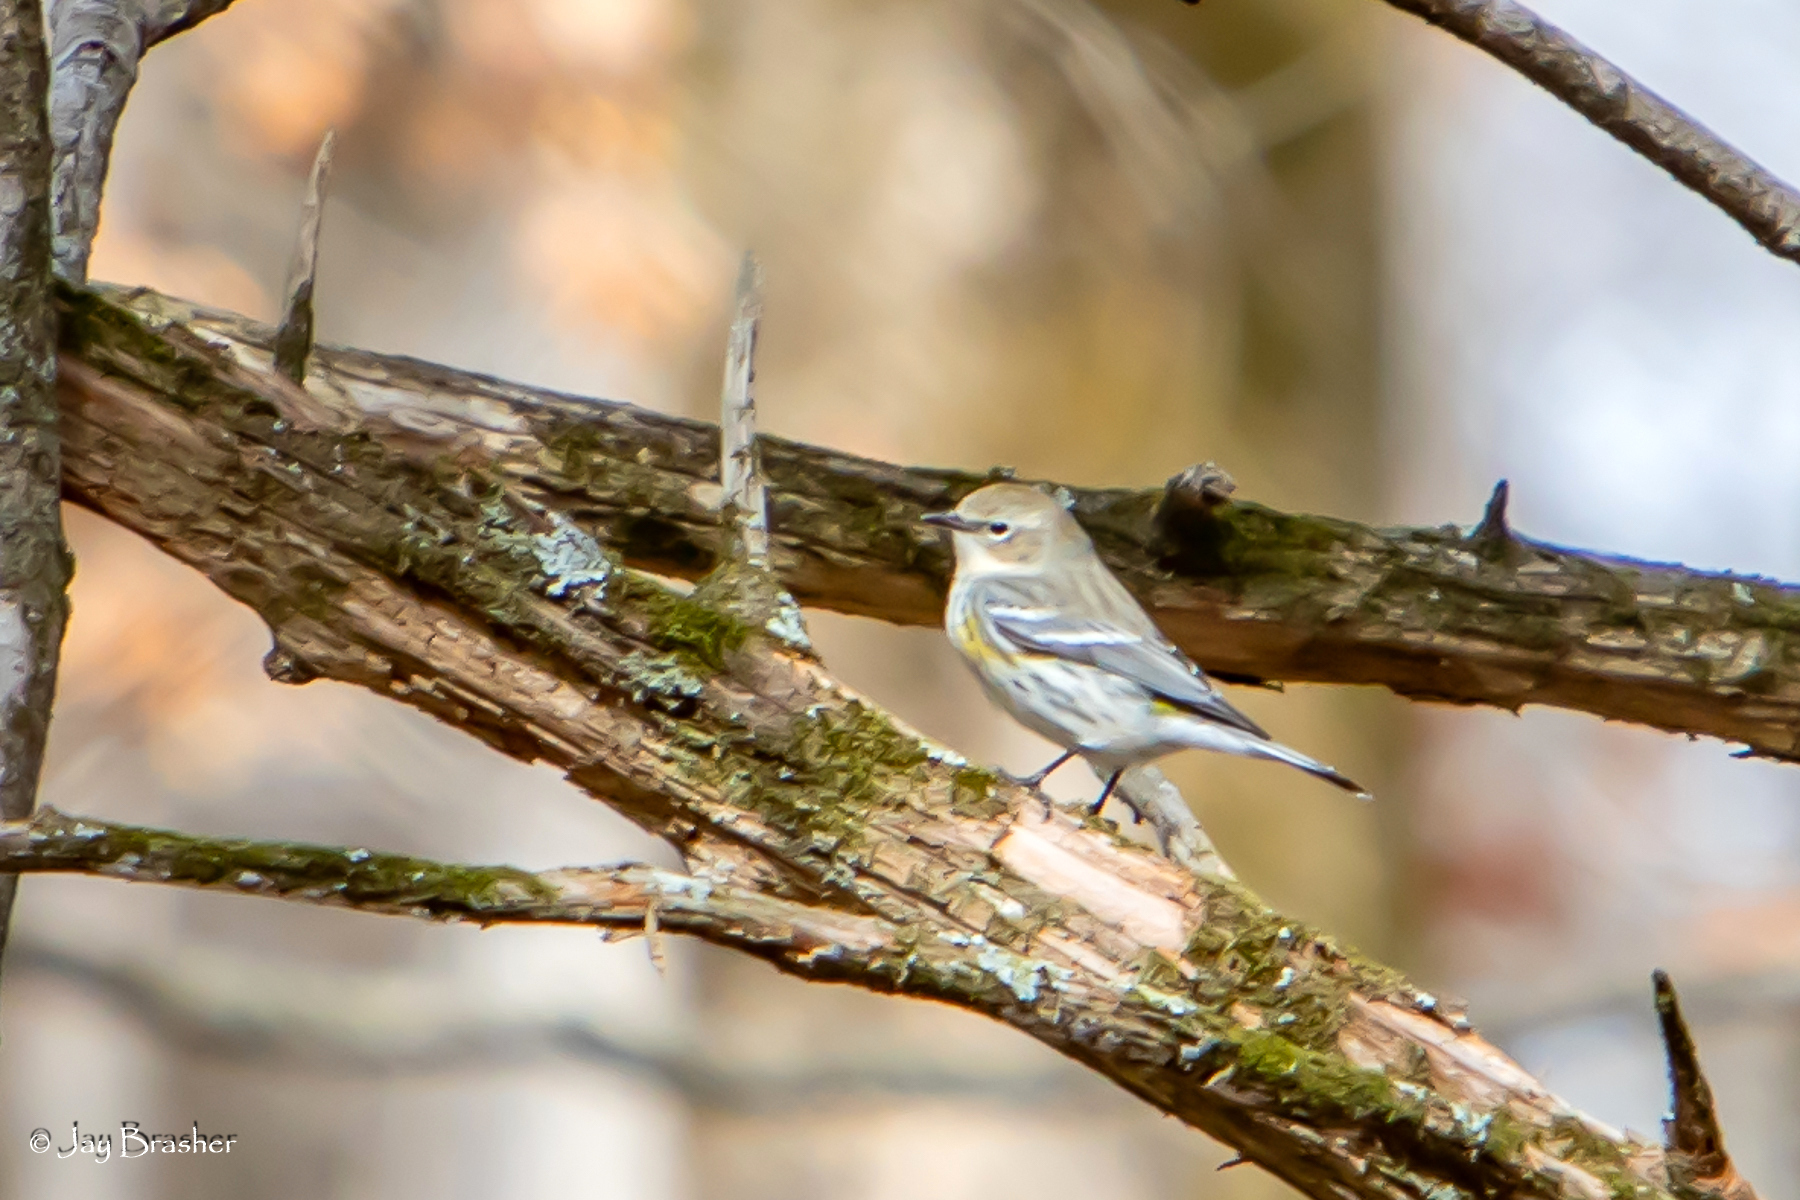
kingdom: Animalia
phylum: Chordata
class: Aves
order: Passeriformes
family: Parulidae
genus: Setophaga
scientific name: Setophaga coronata
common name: Myrtle warbler
